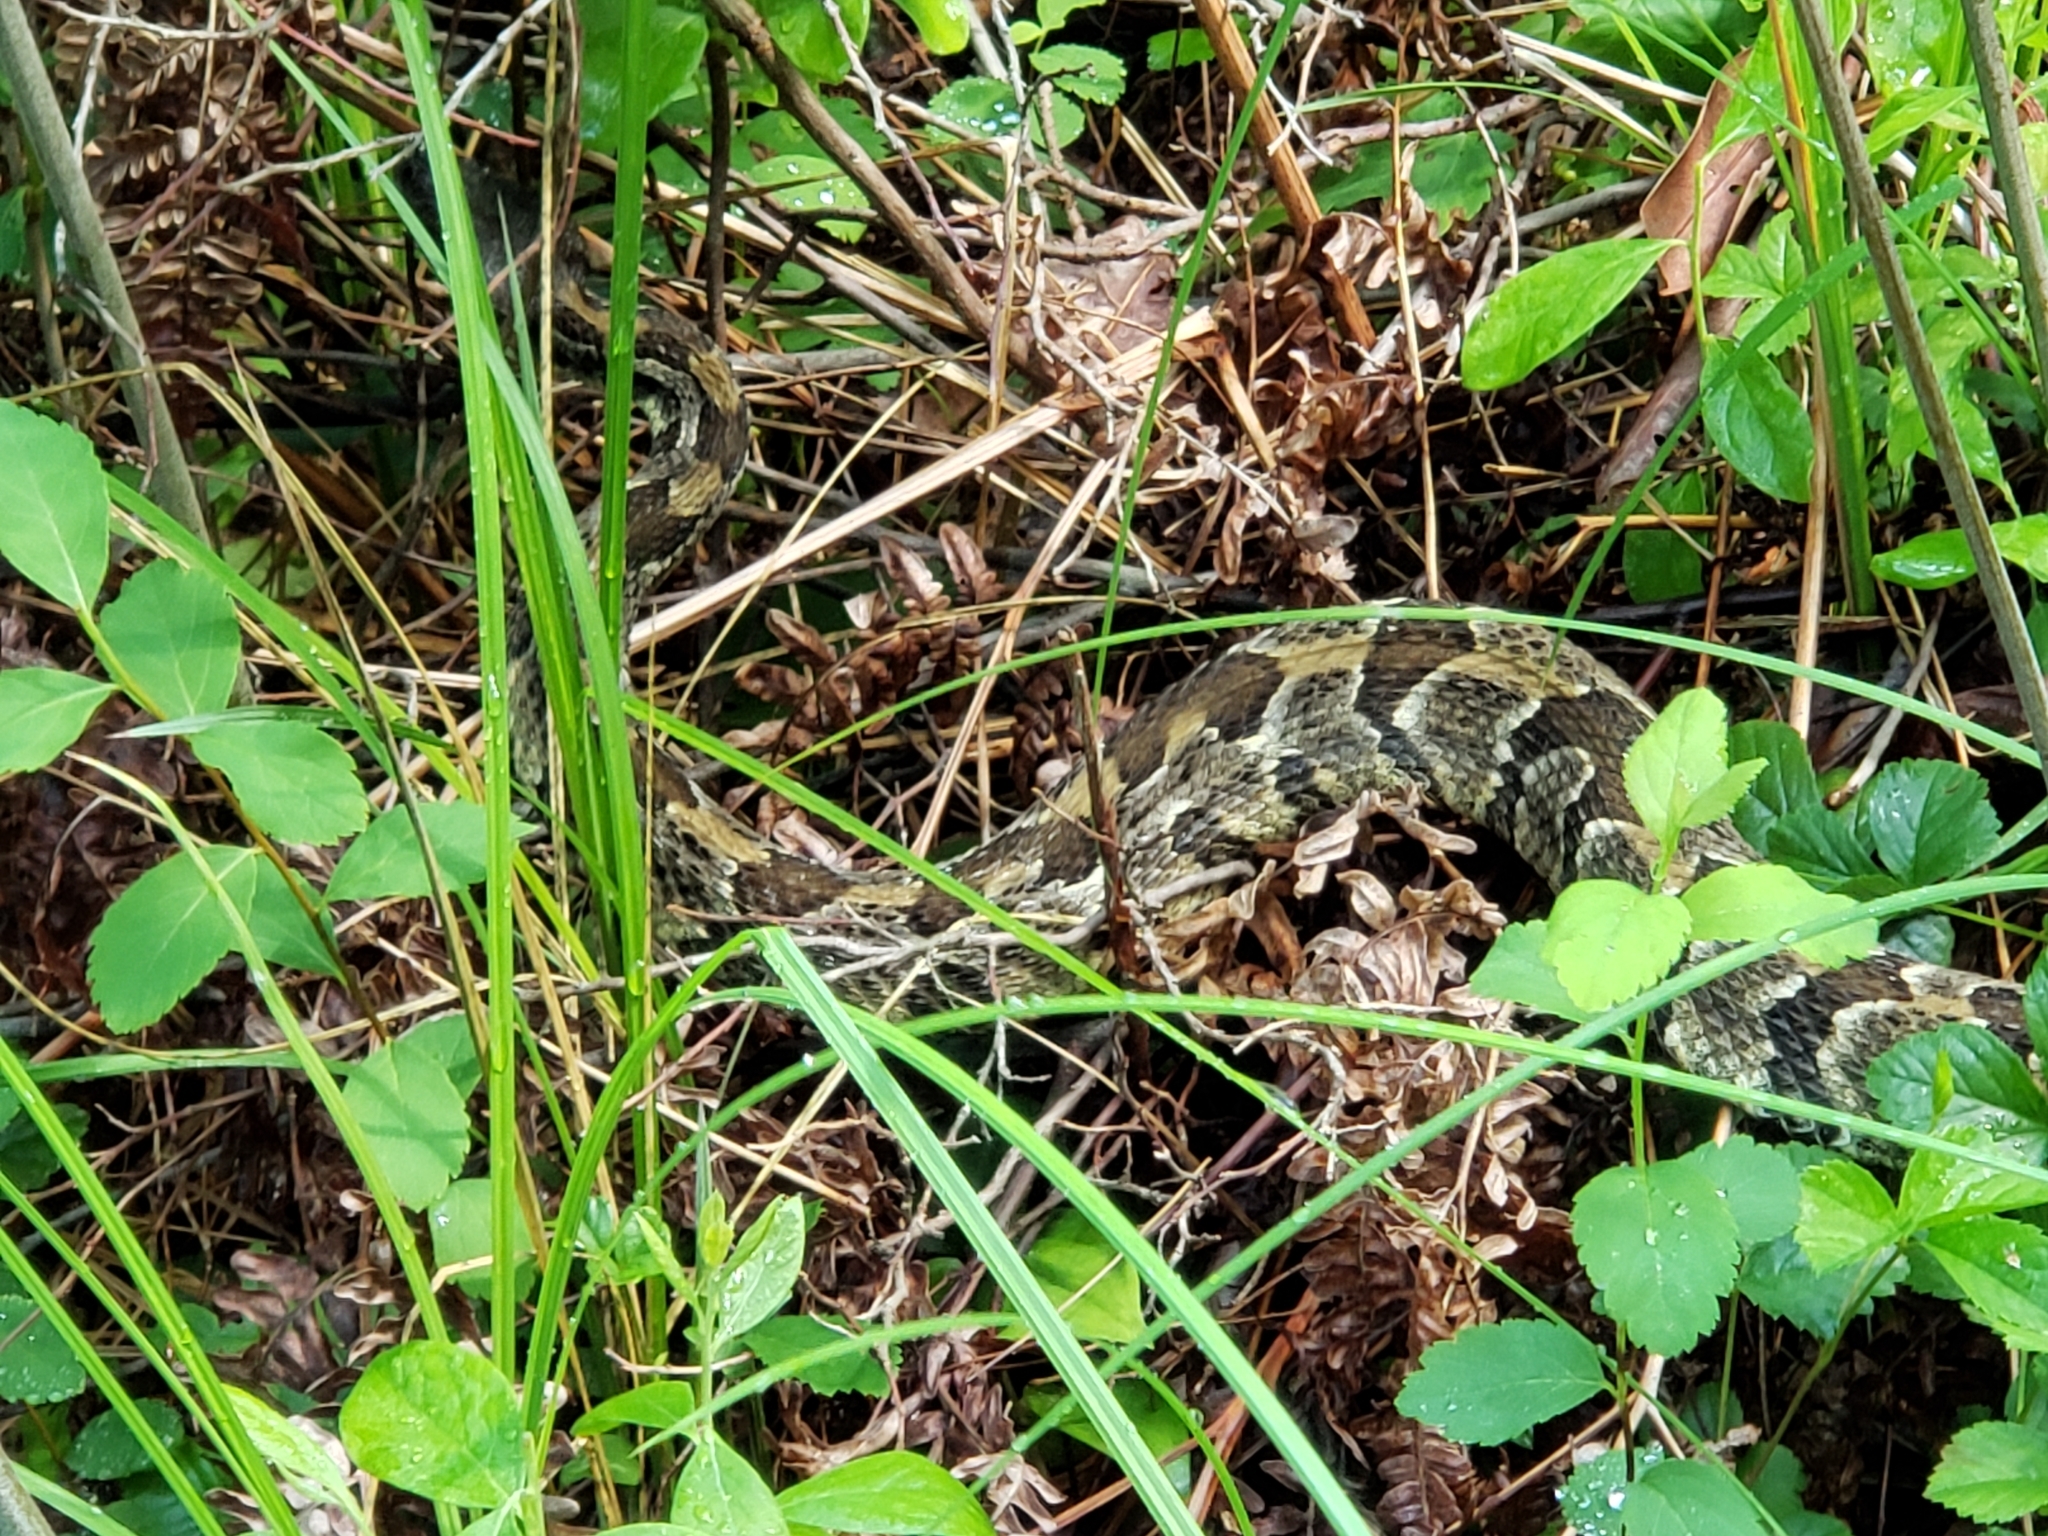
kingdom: Animalia
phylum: Chordata
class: Squamata
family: Viperidae
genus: Crotalus
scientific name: Crotalus horridus
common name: Timber rattlesnake
